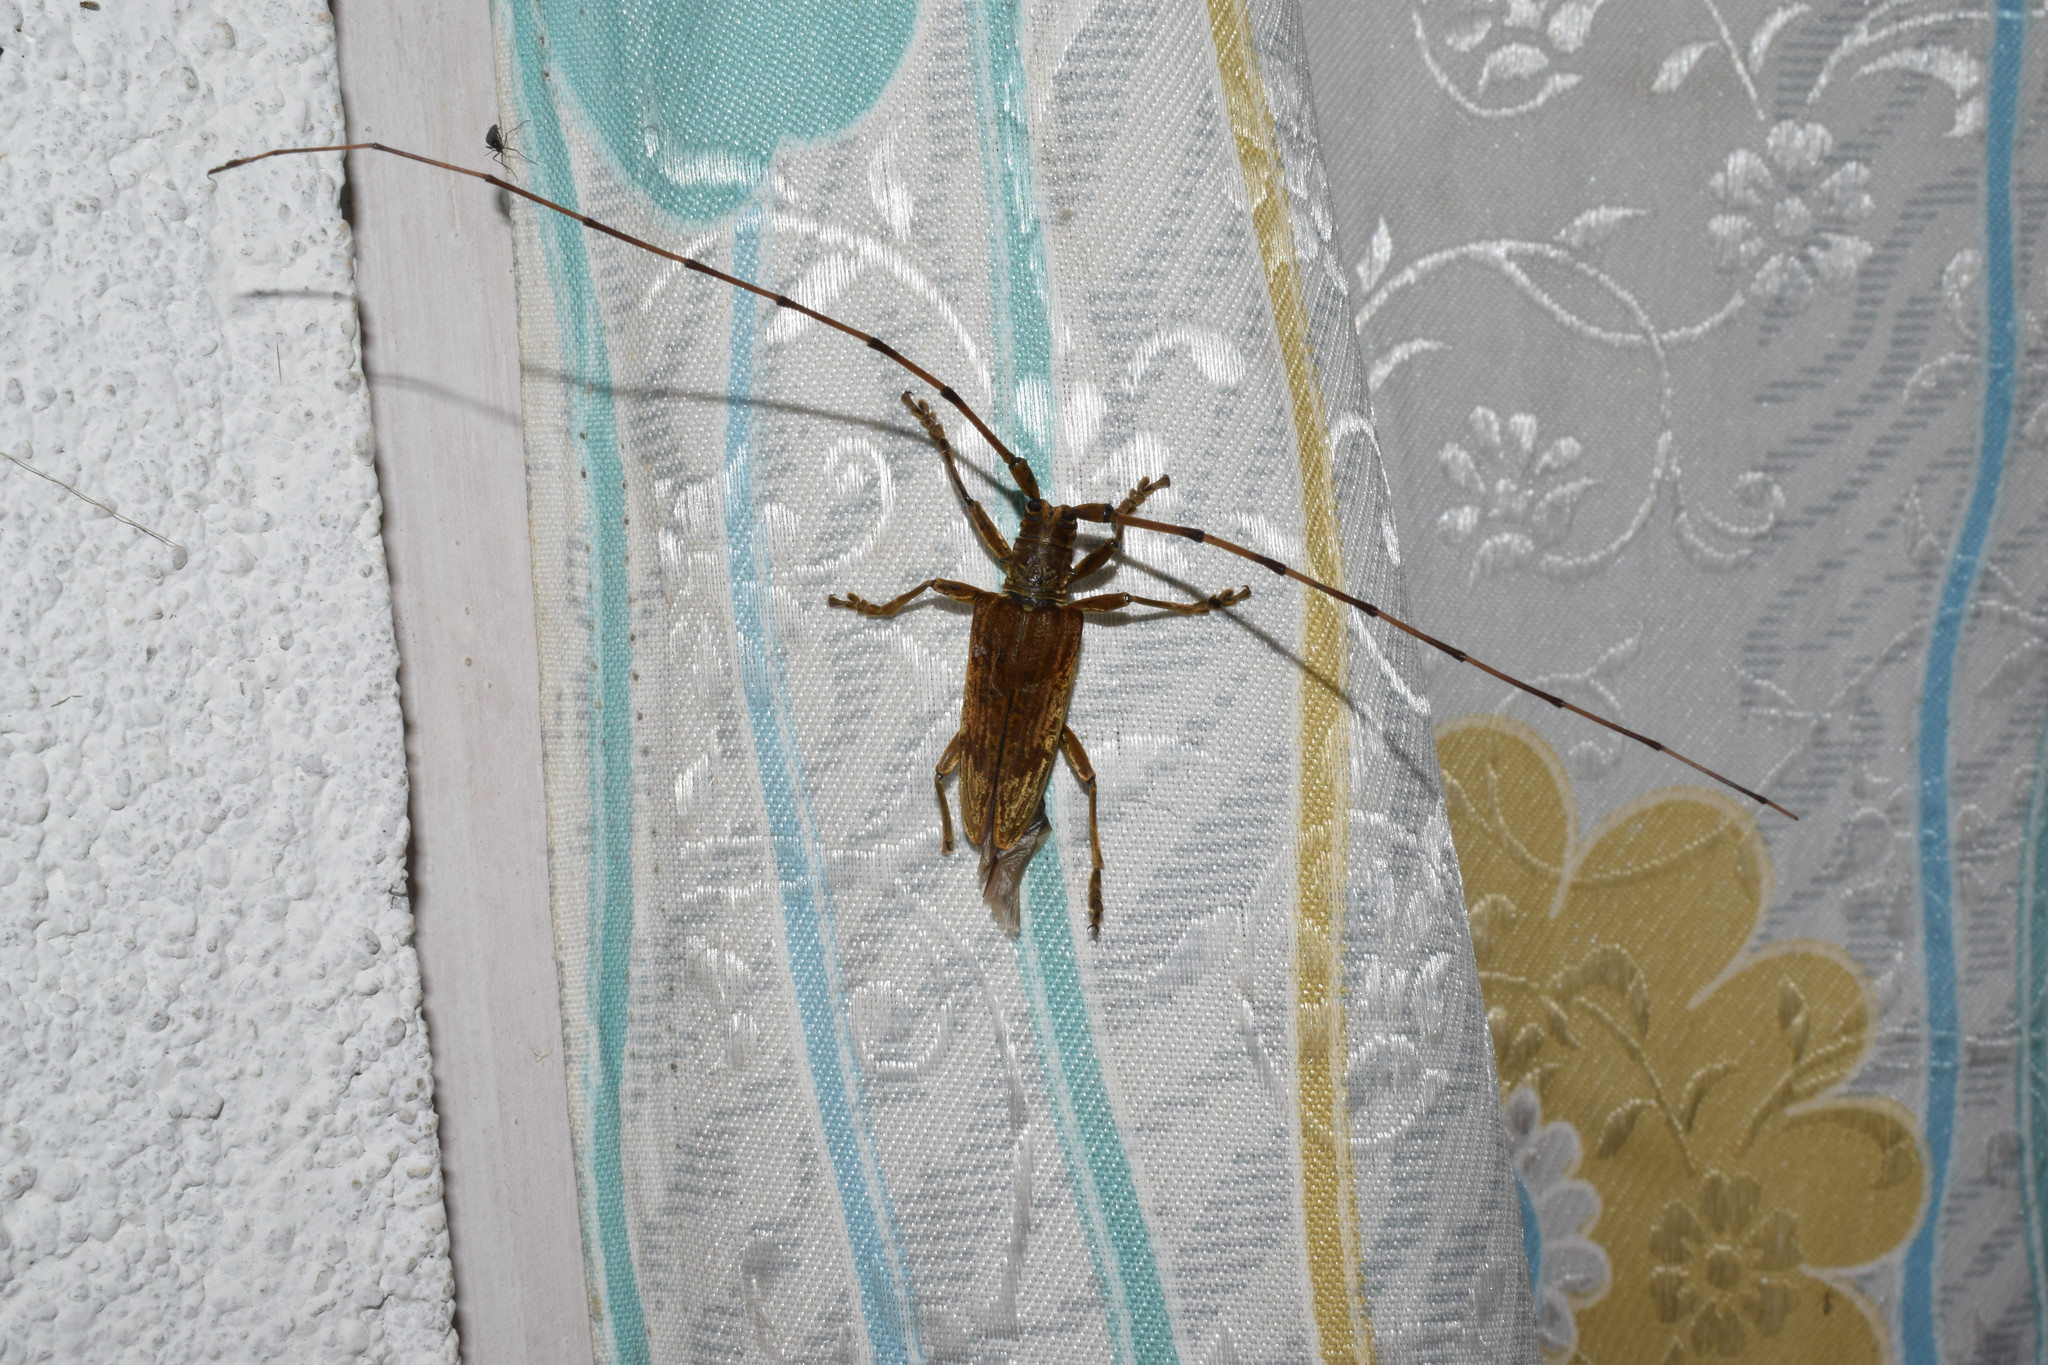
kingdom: Animalia
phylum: Arthropoda
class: Insecta
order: Coleoptera
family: Cerambycidae
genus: Acalolepta
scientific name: Acalolepta aurata
